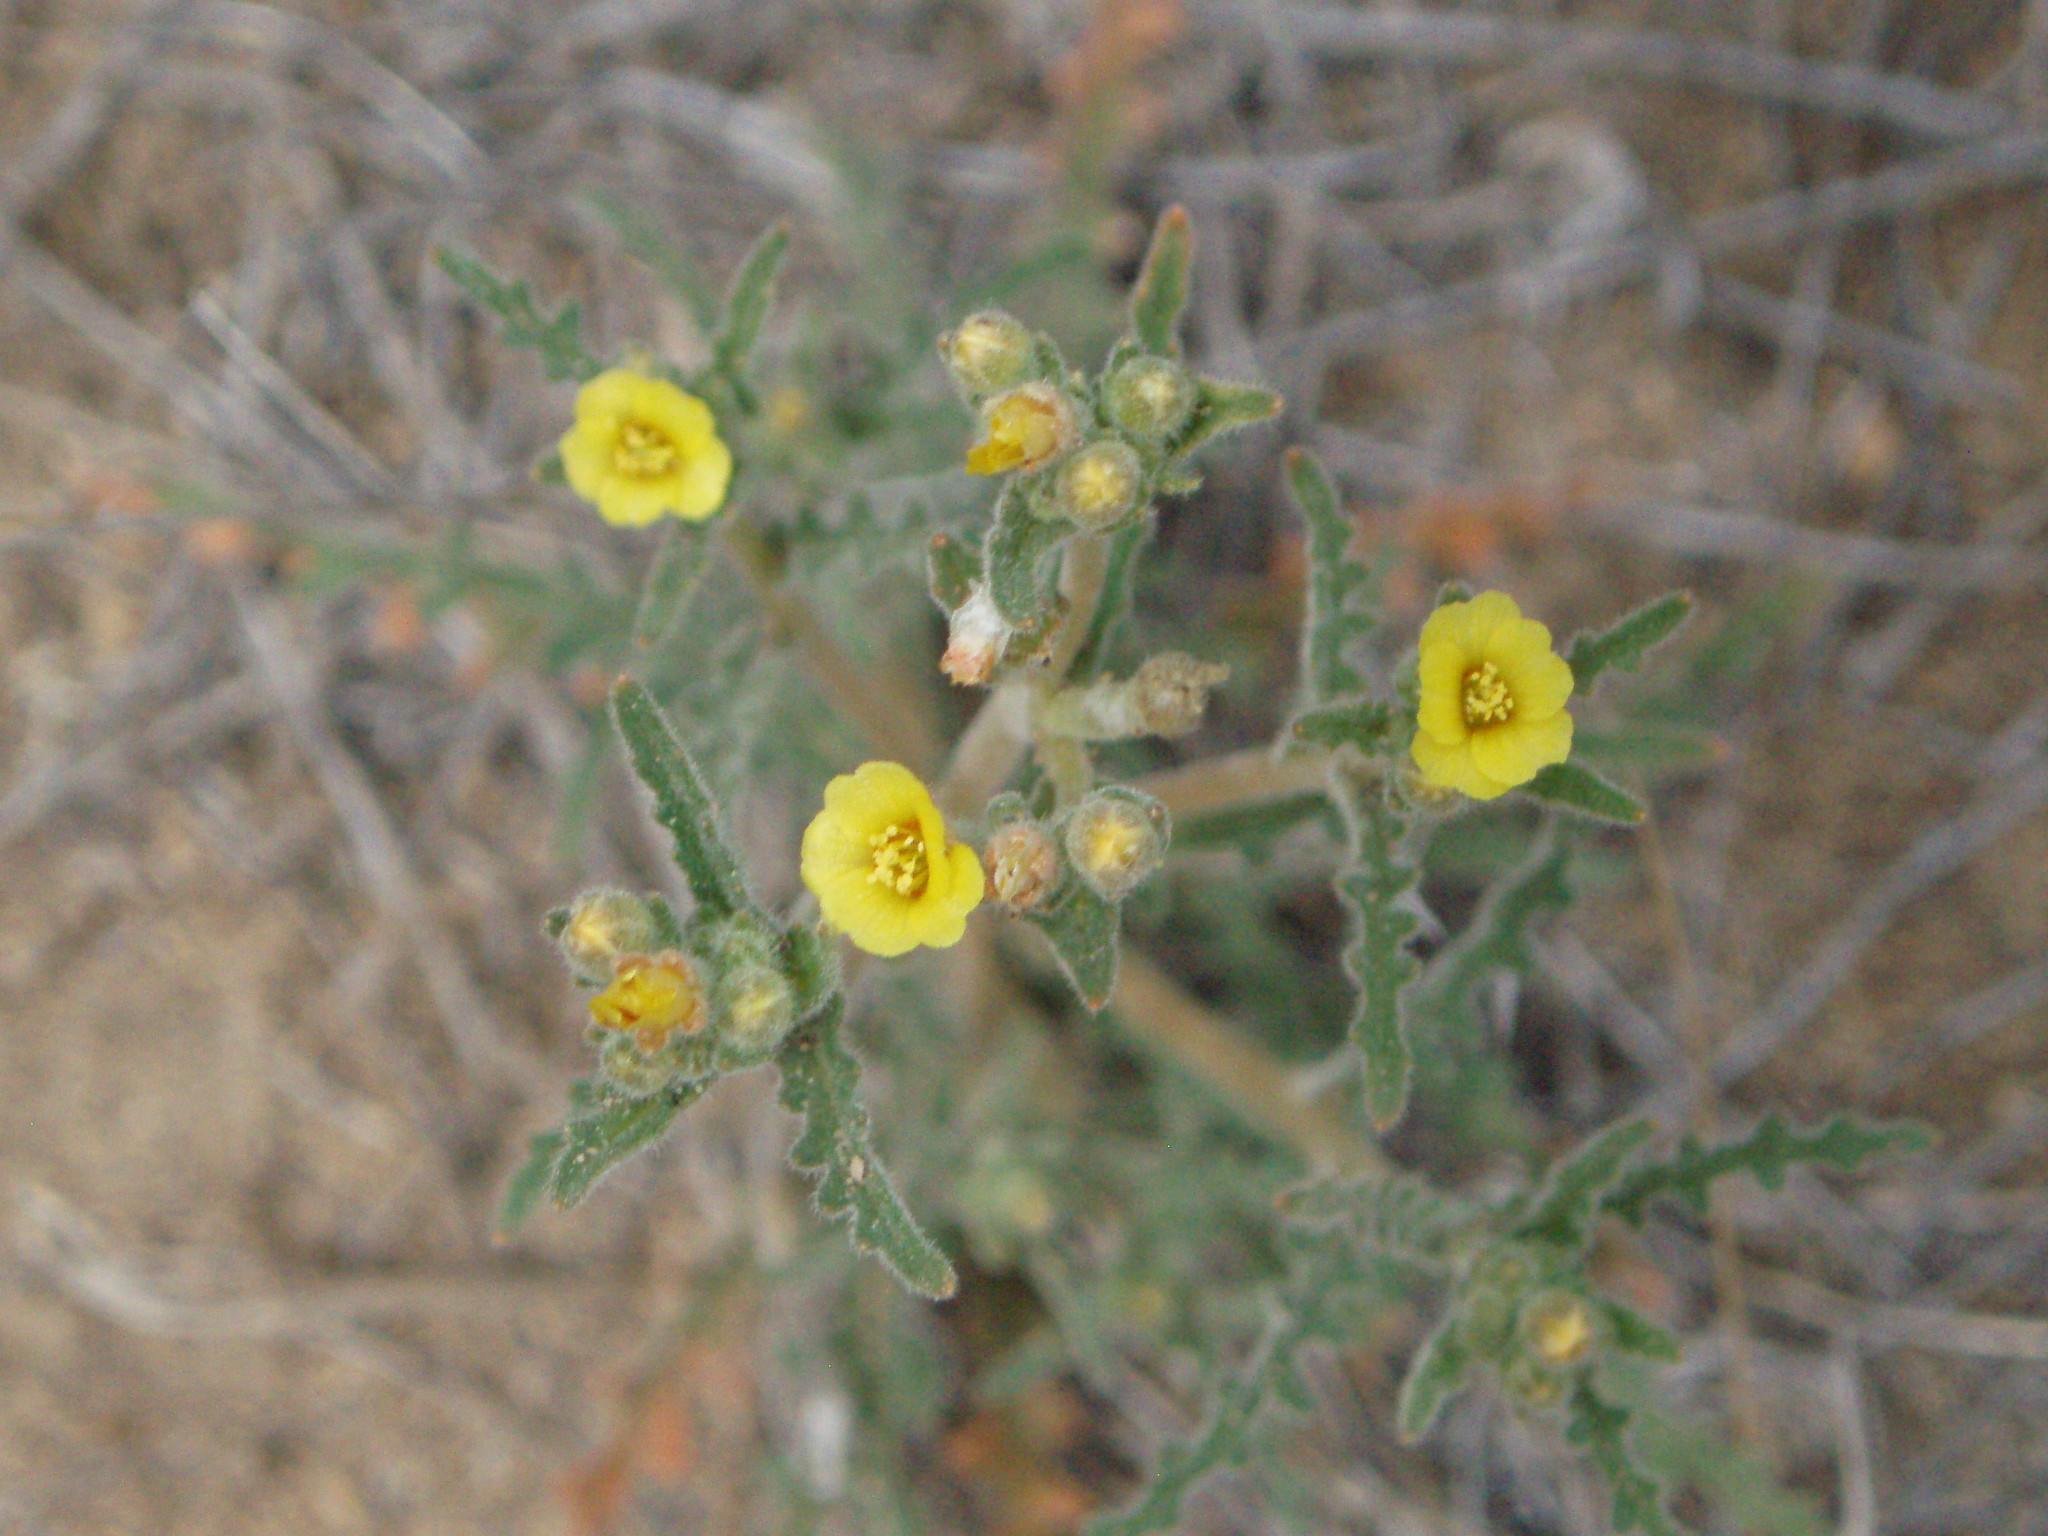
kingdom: Plantae
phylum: Tracheophyta
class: Magnoliopsida
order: Cornales
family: Loasaceae
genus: Mentzelia
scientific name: Mentzelia albicaulis
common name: White-stem blazingstar
